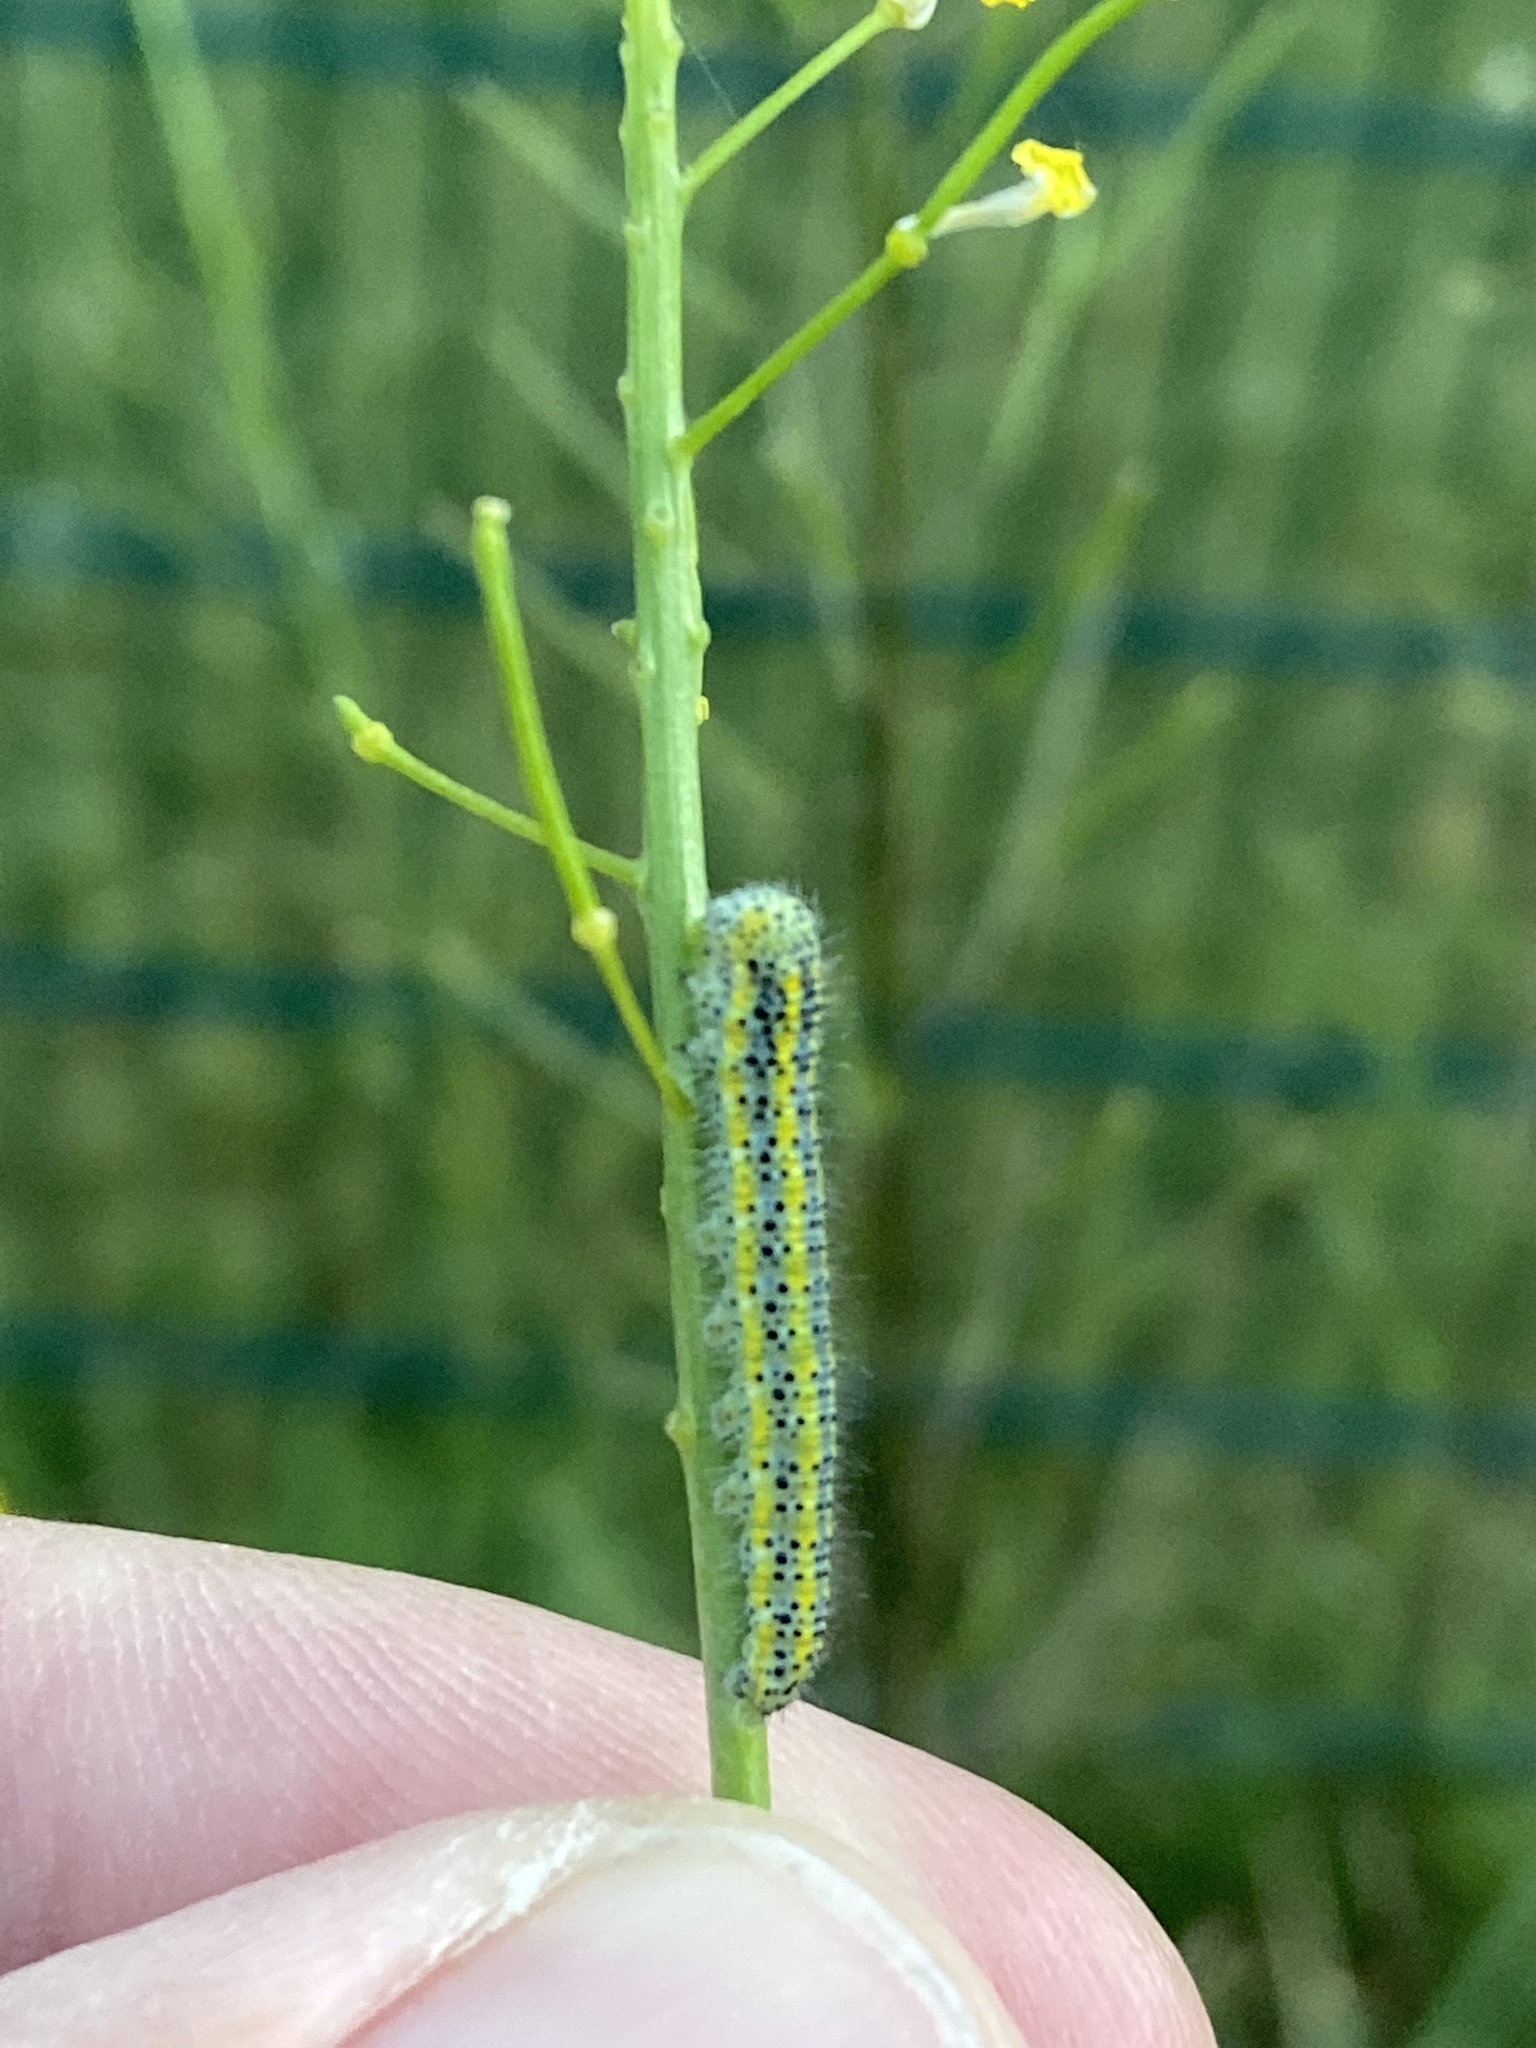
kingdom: Animalia
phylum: Arthropoda
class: Insecta
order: Lepidoptera
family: Pieridae
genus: Pontia
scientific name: Pontia edusa
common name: Eastern bath white
